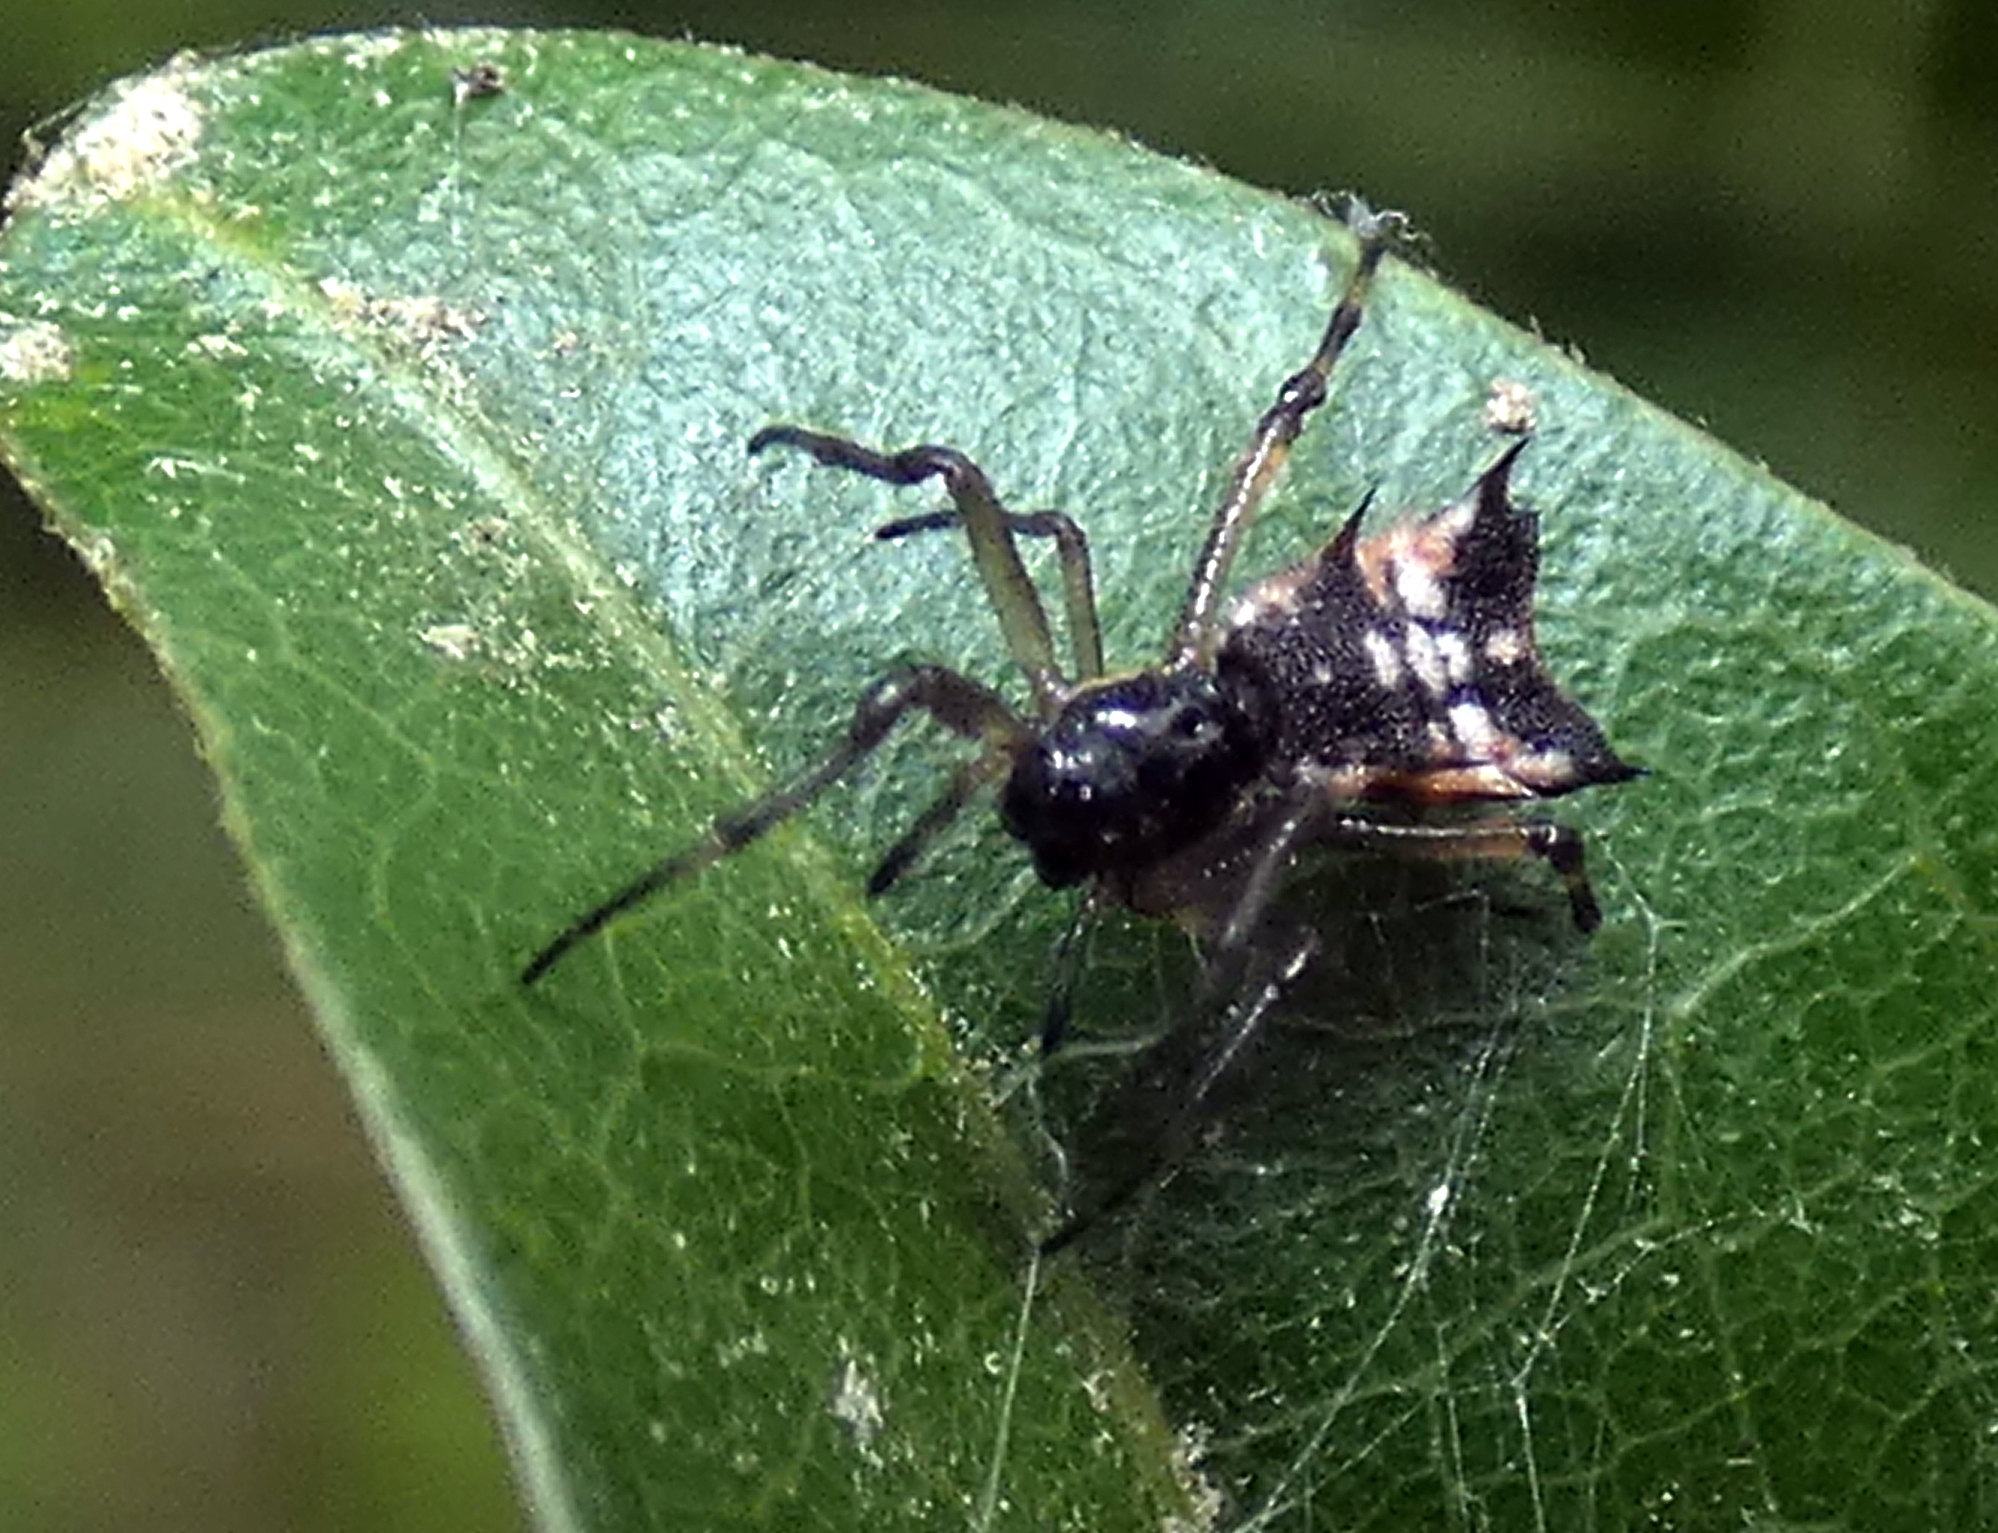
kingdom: Animalia
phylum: Arthropoda
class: Arachnida
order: Araneae
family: Araneidae
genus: Micrathena
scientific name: Micrathena picta
